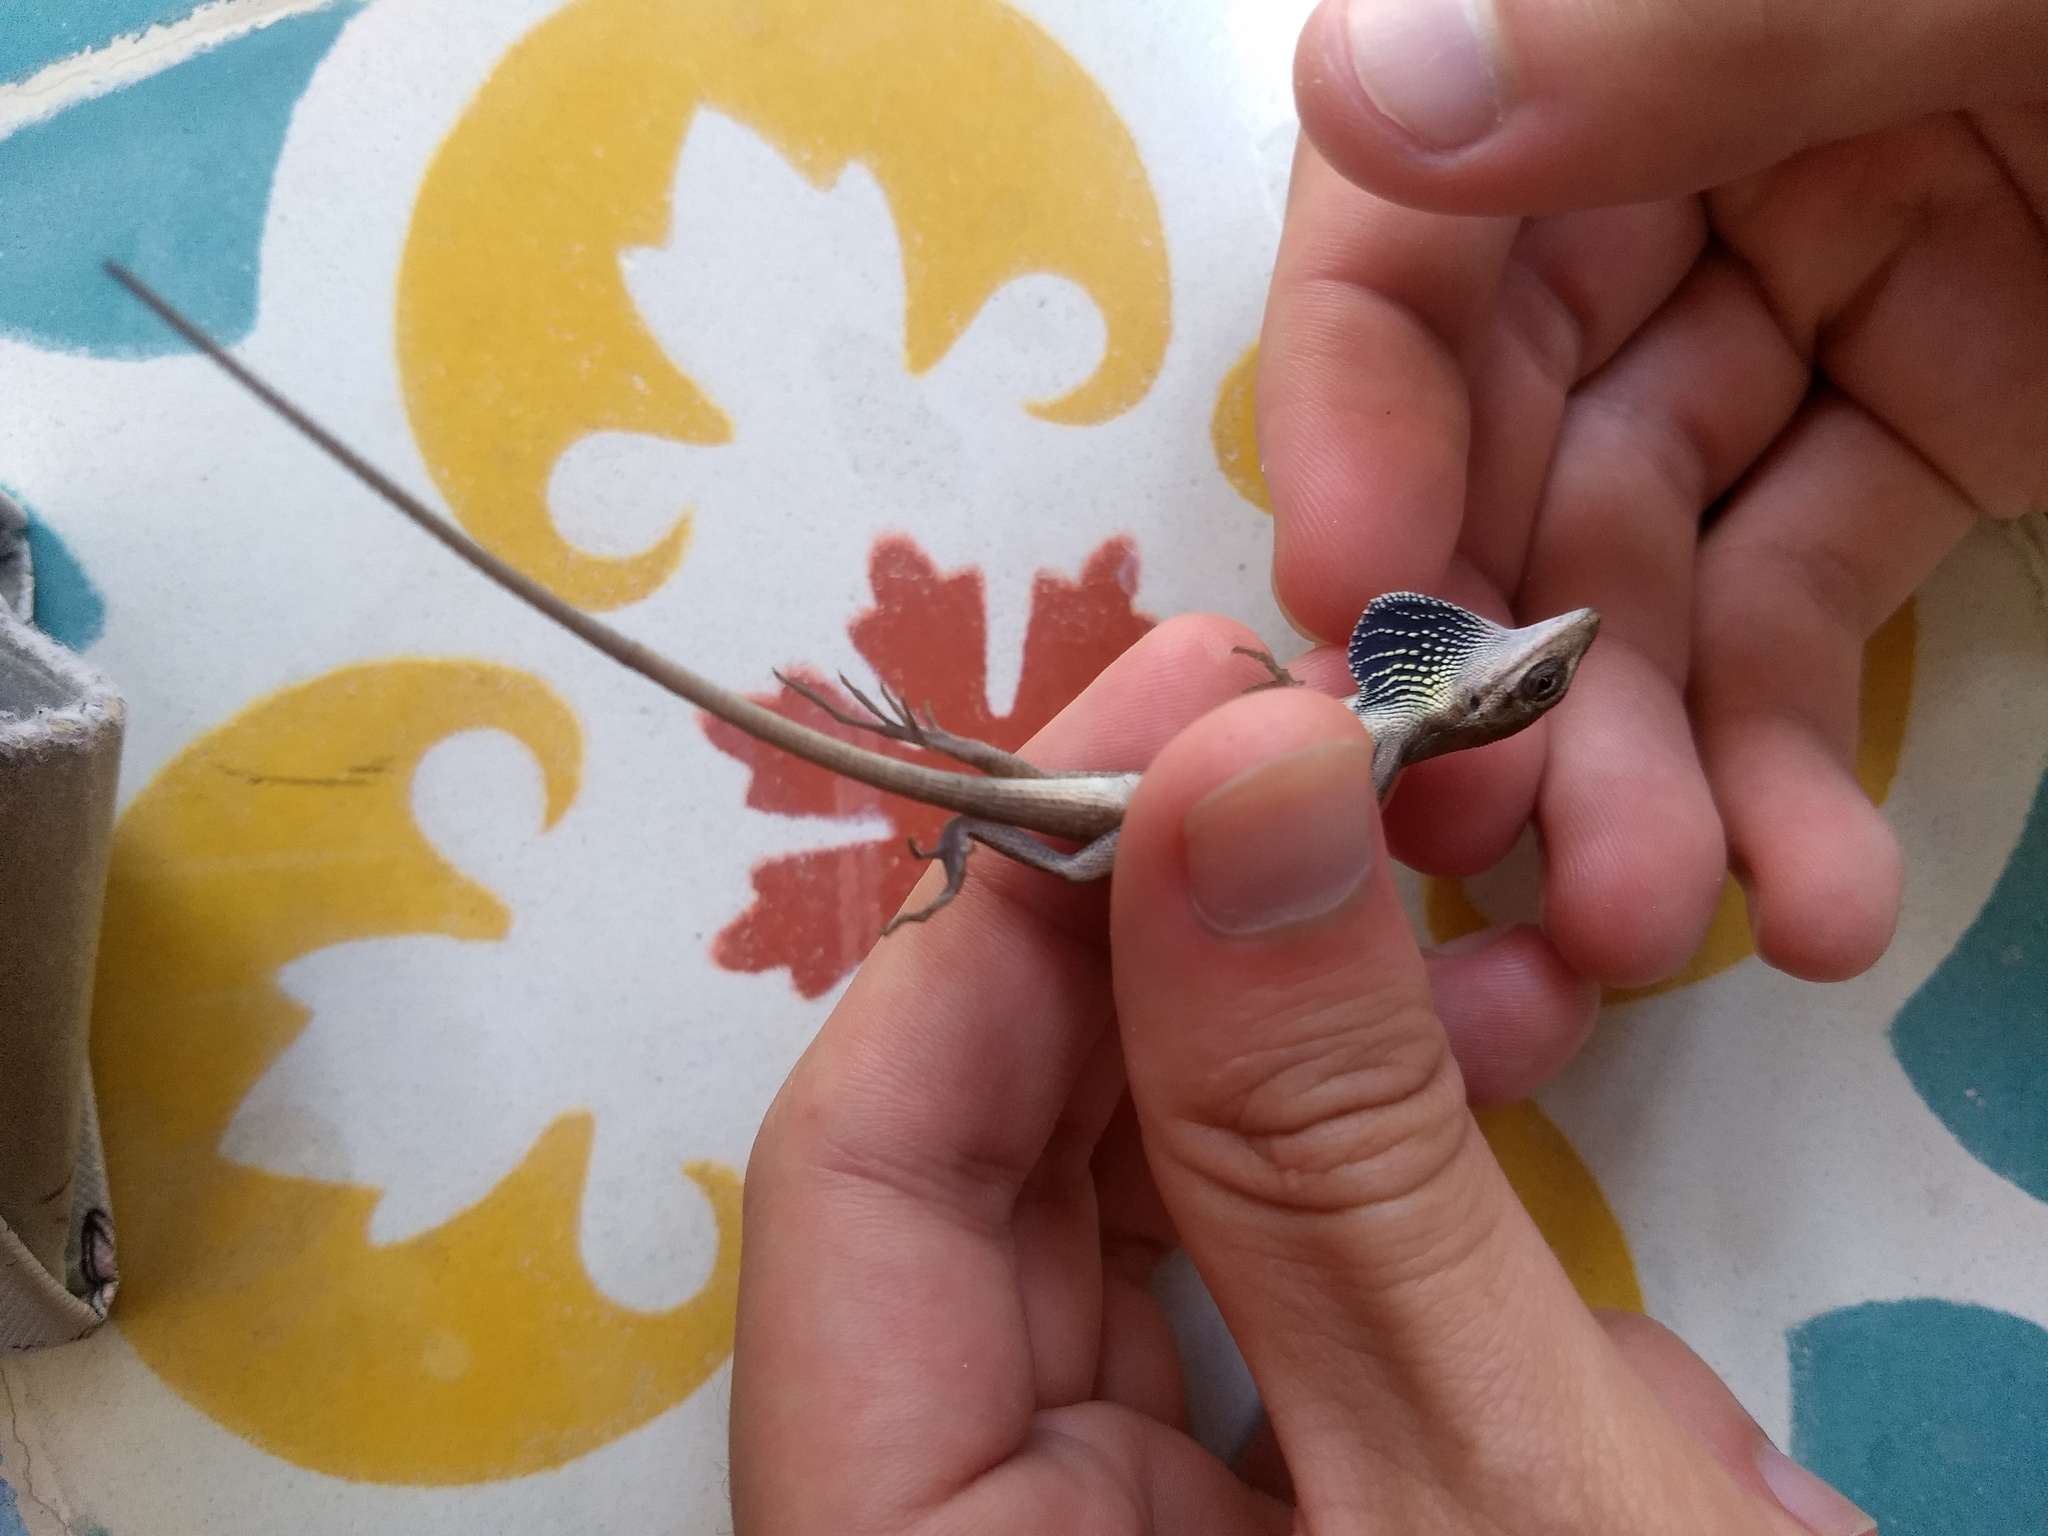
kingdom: Animalia
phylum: Chordata
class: Squamata
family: Dactyloidae
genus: Anolis
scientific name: Anolis auratus
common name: Grass anole
